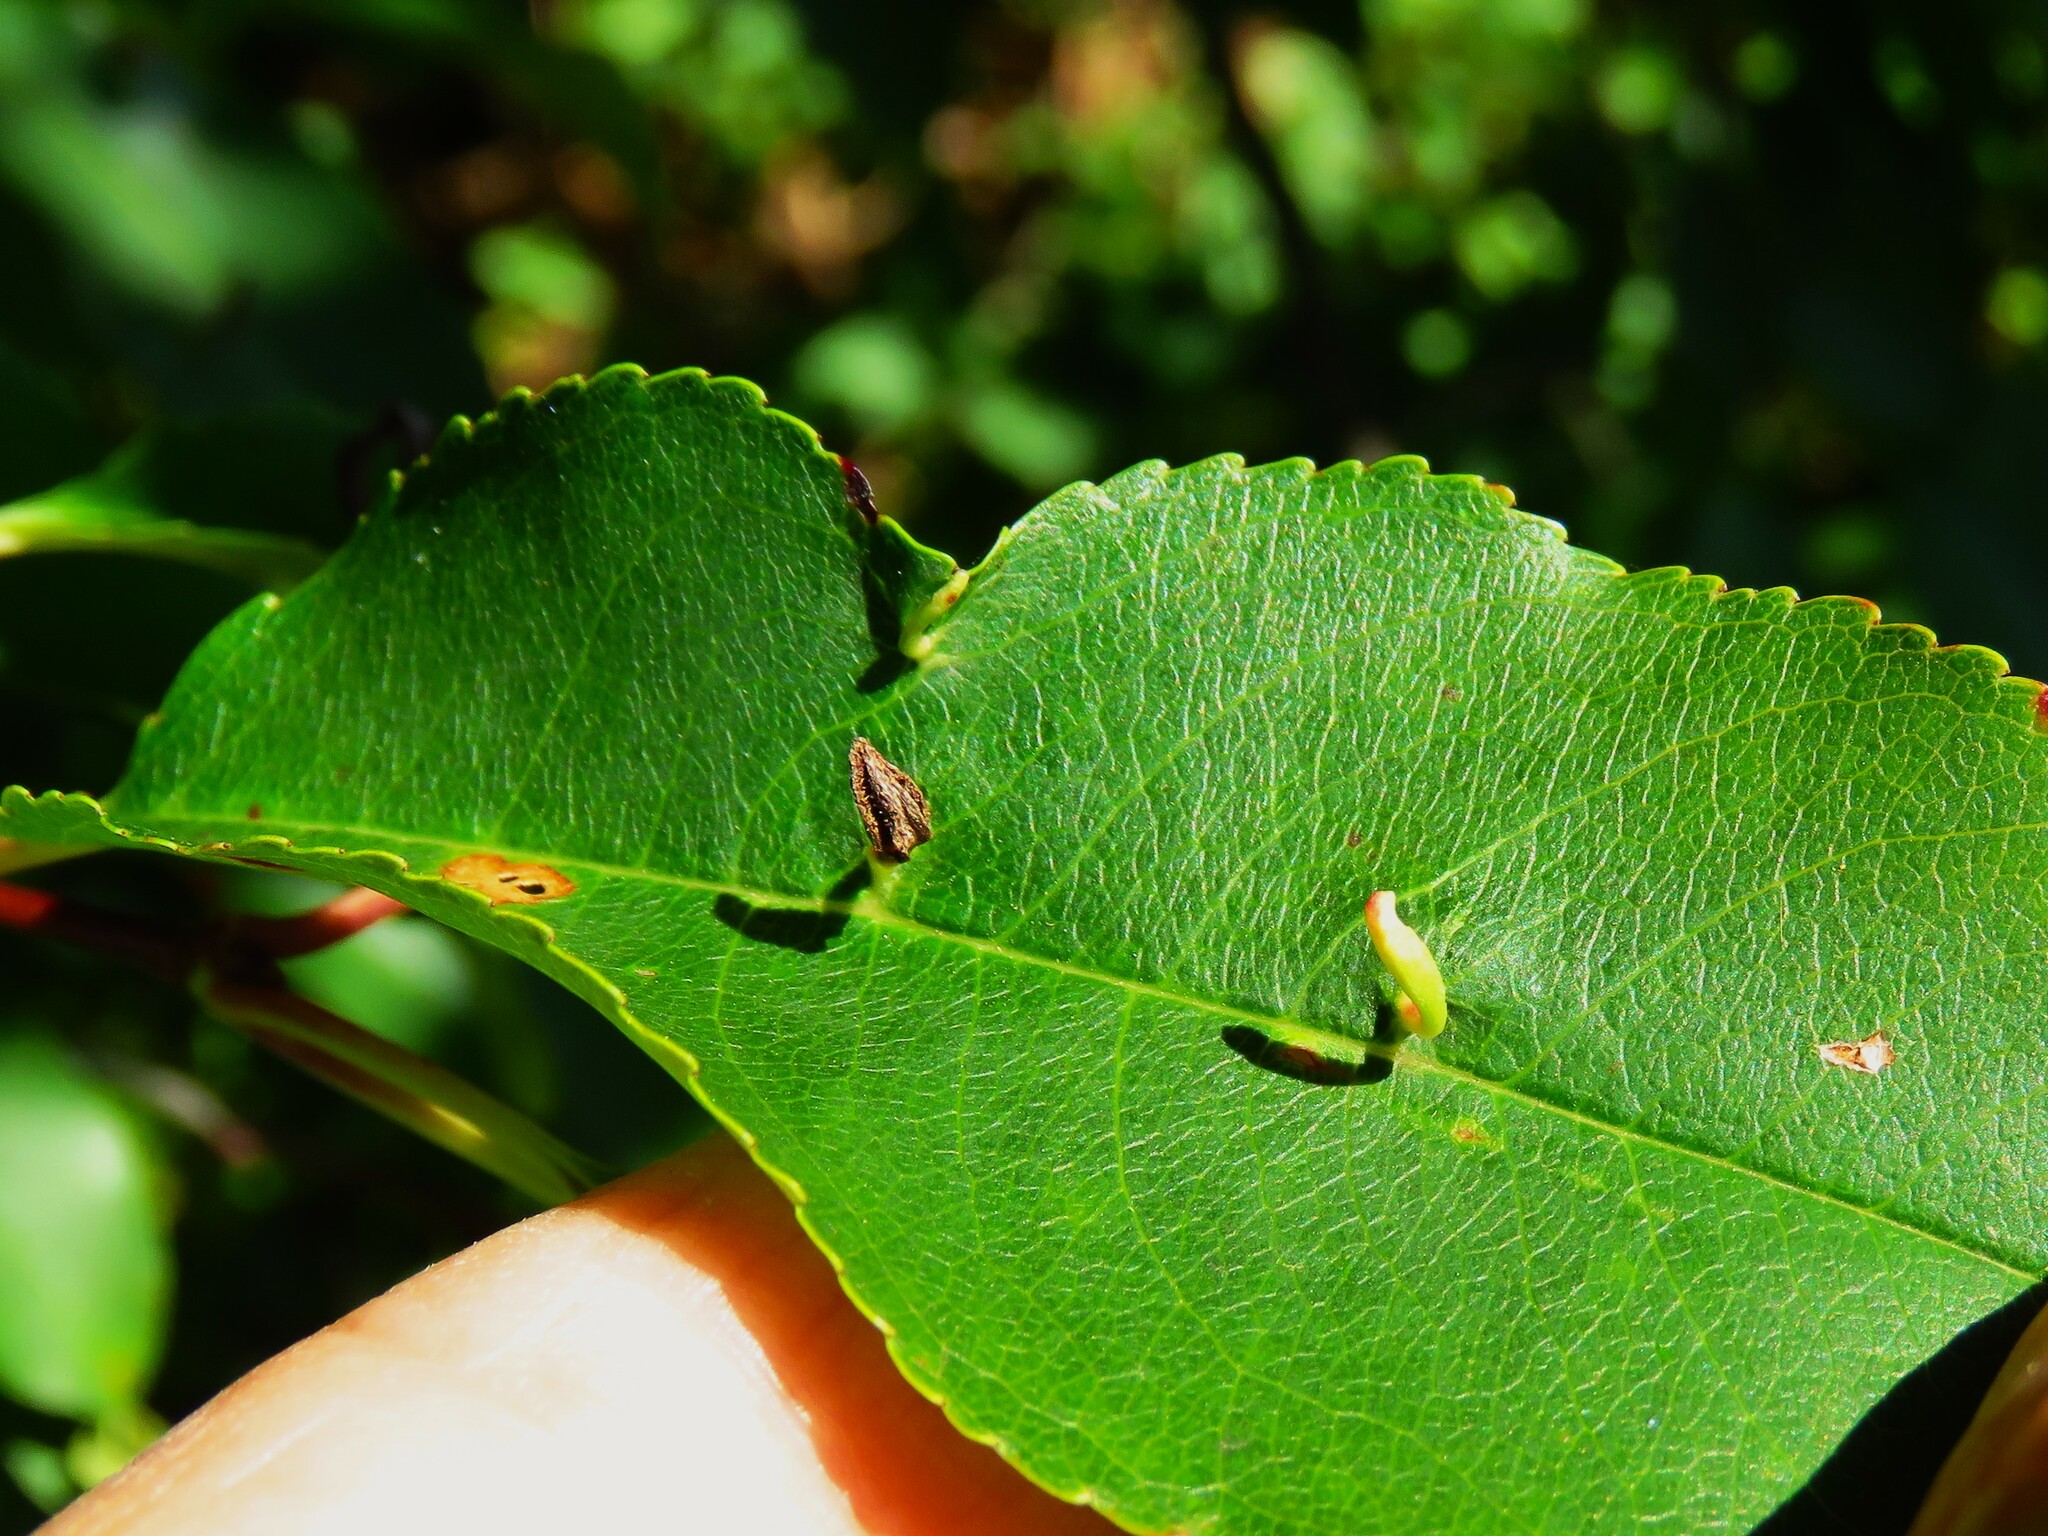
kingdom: Animalia
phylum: Arthropoda
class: Arachnida
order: Trombidiformes
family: Eriophyidae
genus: Eriophyes
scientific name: Eriophyes
